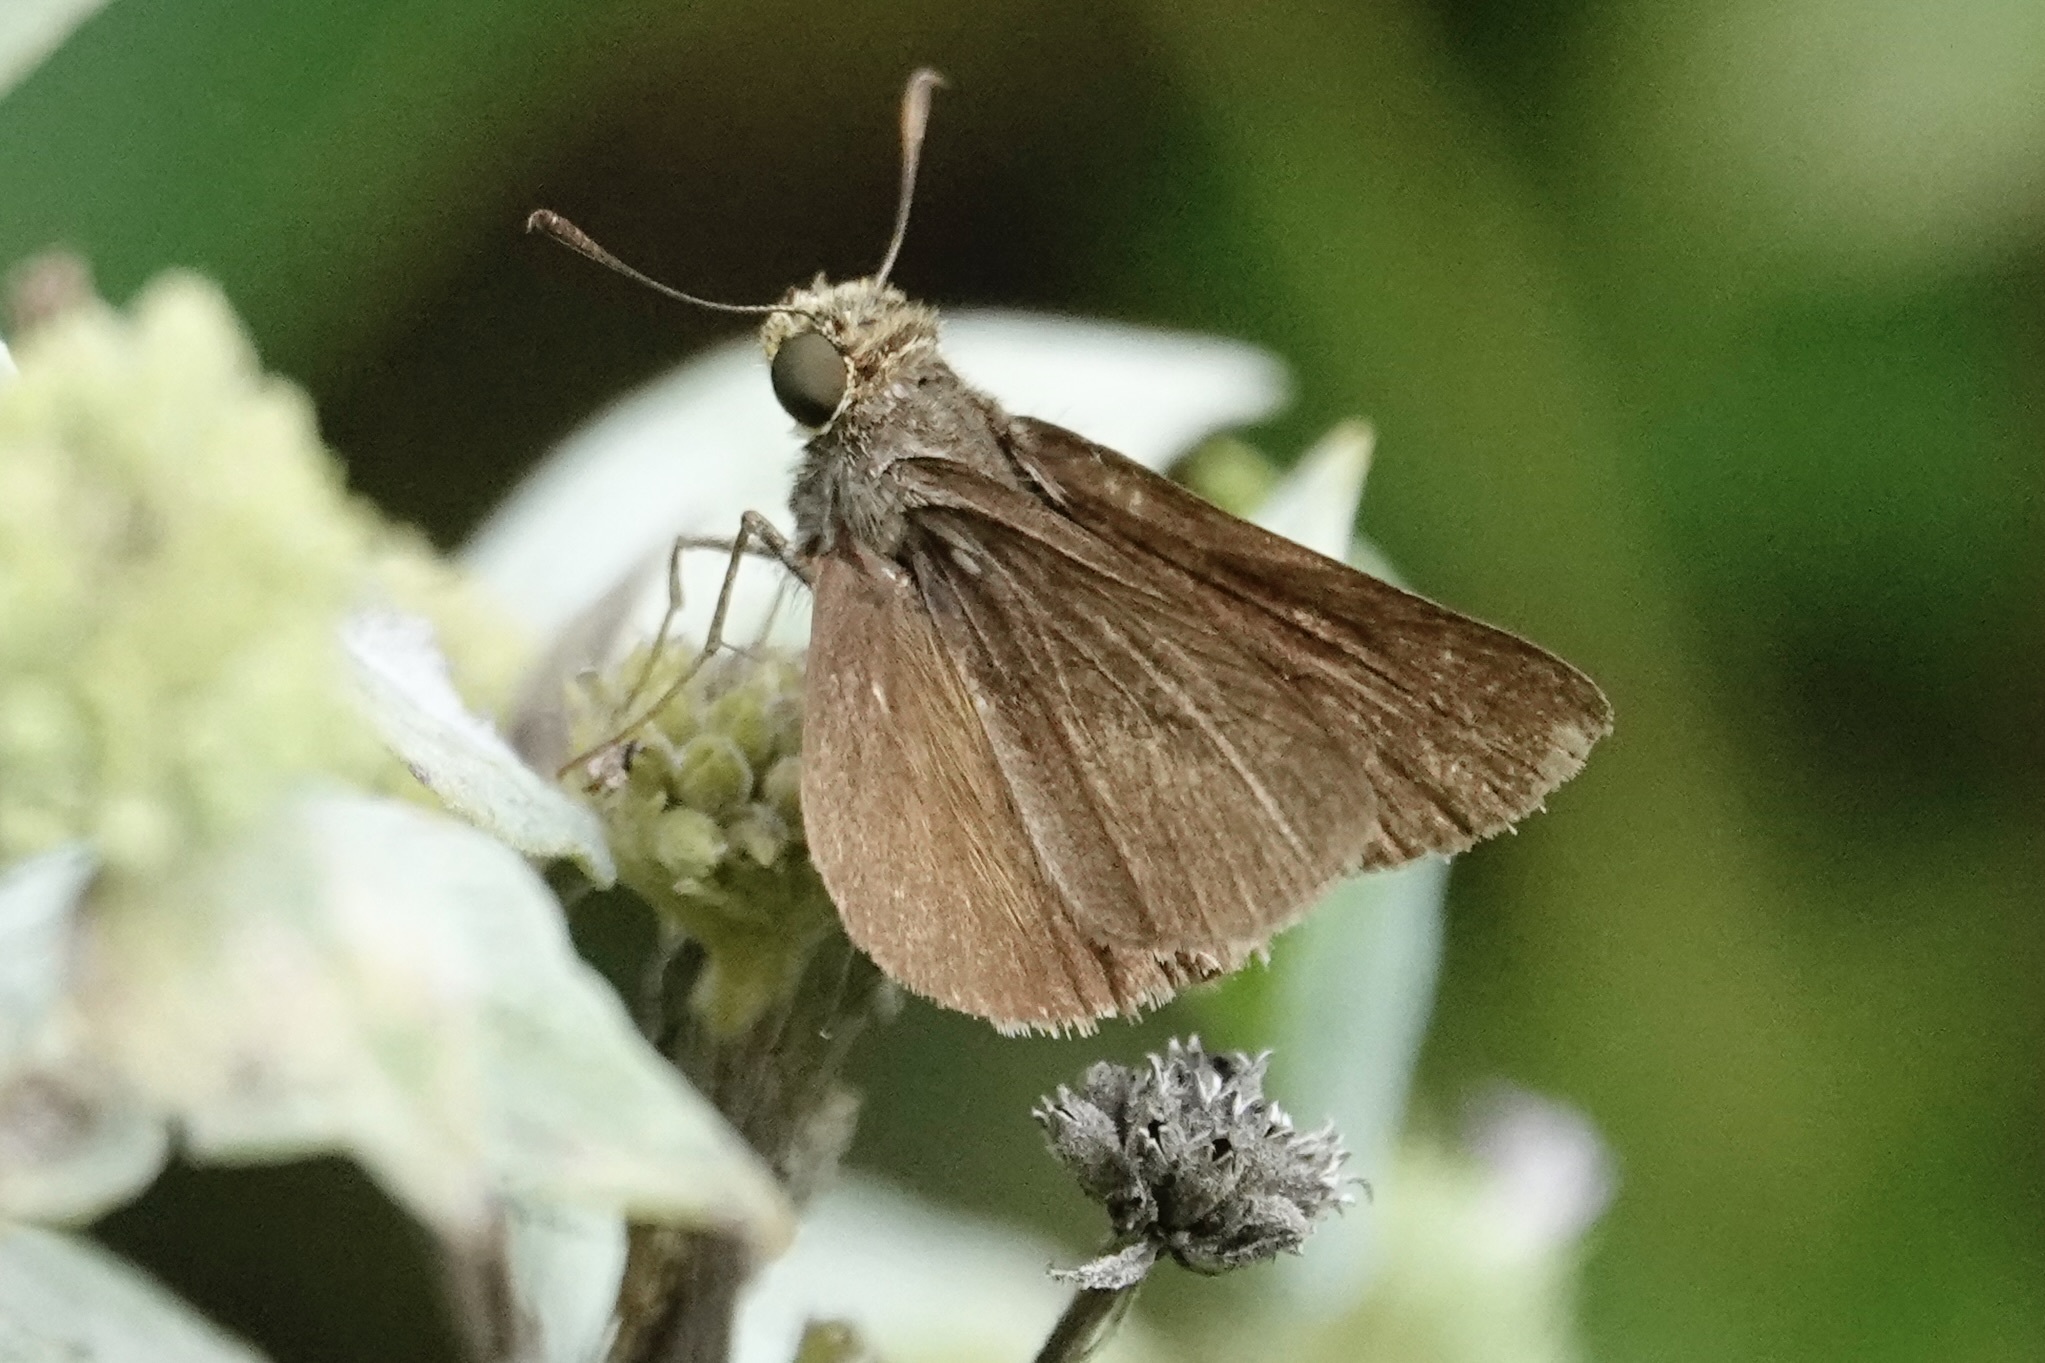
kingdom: Animalia
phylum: Arthropoda
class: Insecta
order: Lepidoptera
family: Hesperiidae
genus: Euphyes
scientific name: Euphyes vestris
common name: Dun skipper
